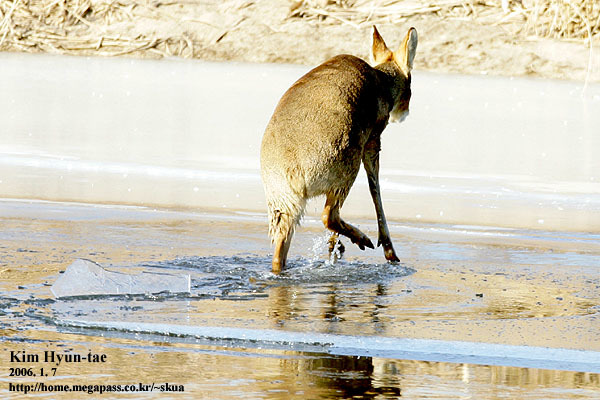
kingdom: Animalia
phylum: Chordata
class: Mammalia
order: Artiodactyla
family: Cervidae
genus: Hydropotes
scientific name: Hydropotes inermis
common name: Chinese water deer
